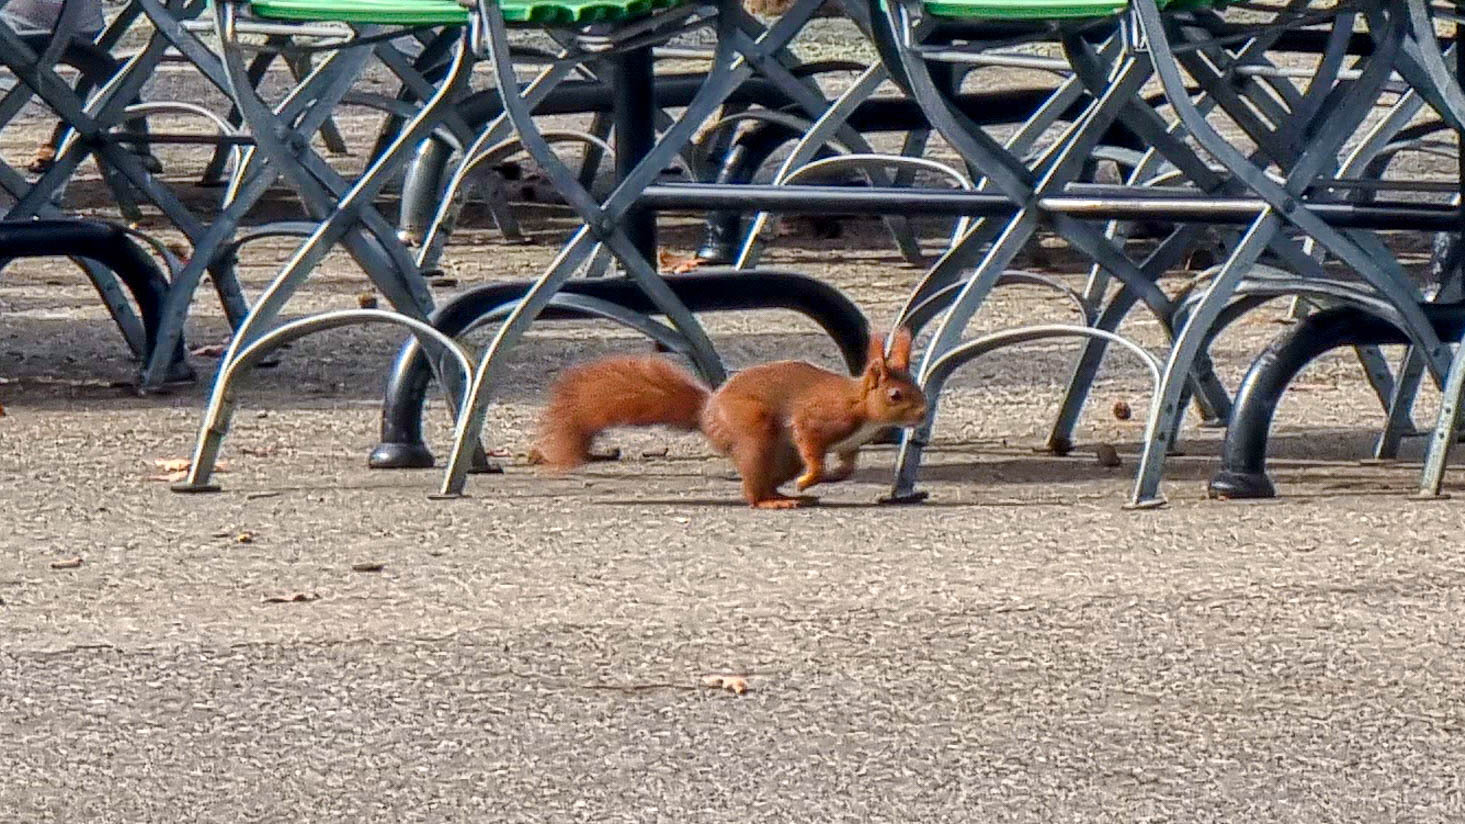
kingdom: Animalia
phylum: Chordata
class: Mammalia
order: Rodentia
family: Sciuridae
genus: Sciurus
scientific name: Sciurus vulgaris
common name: Eurasian red squirrel
